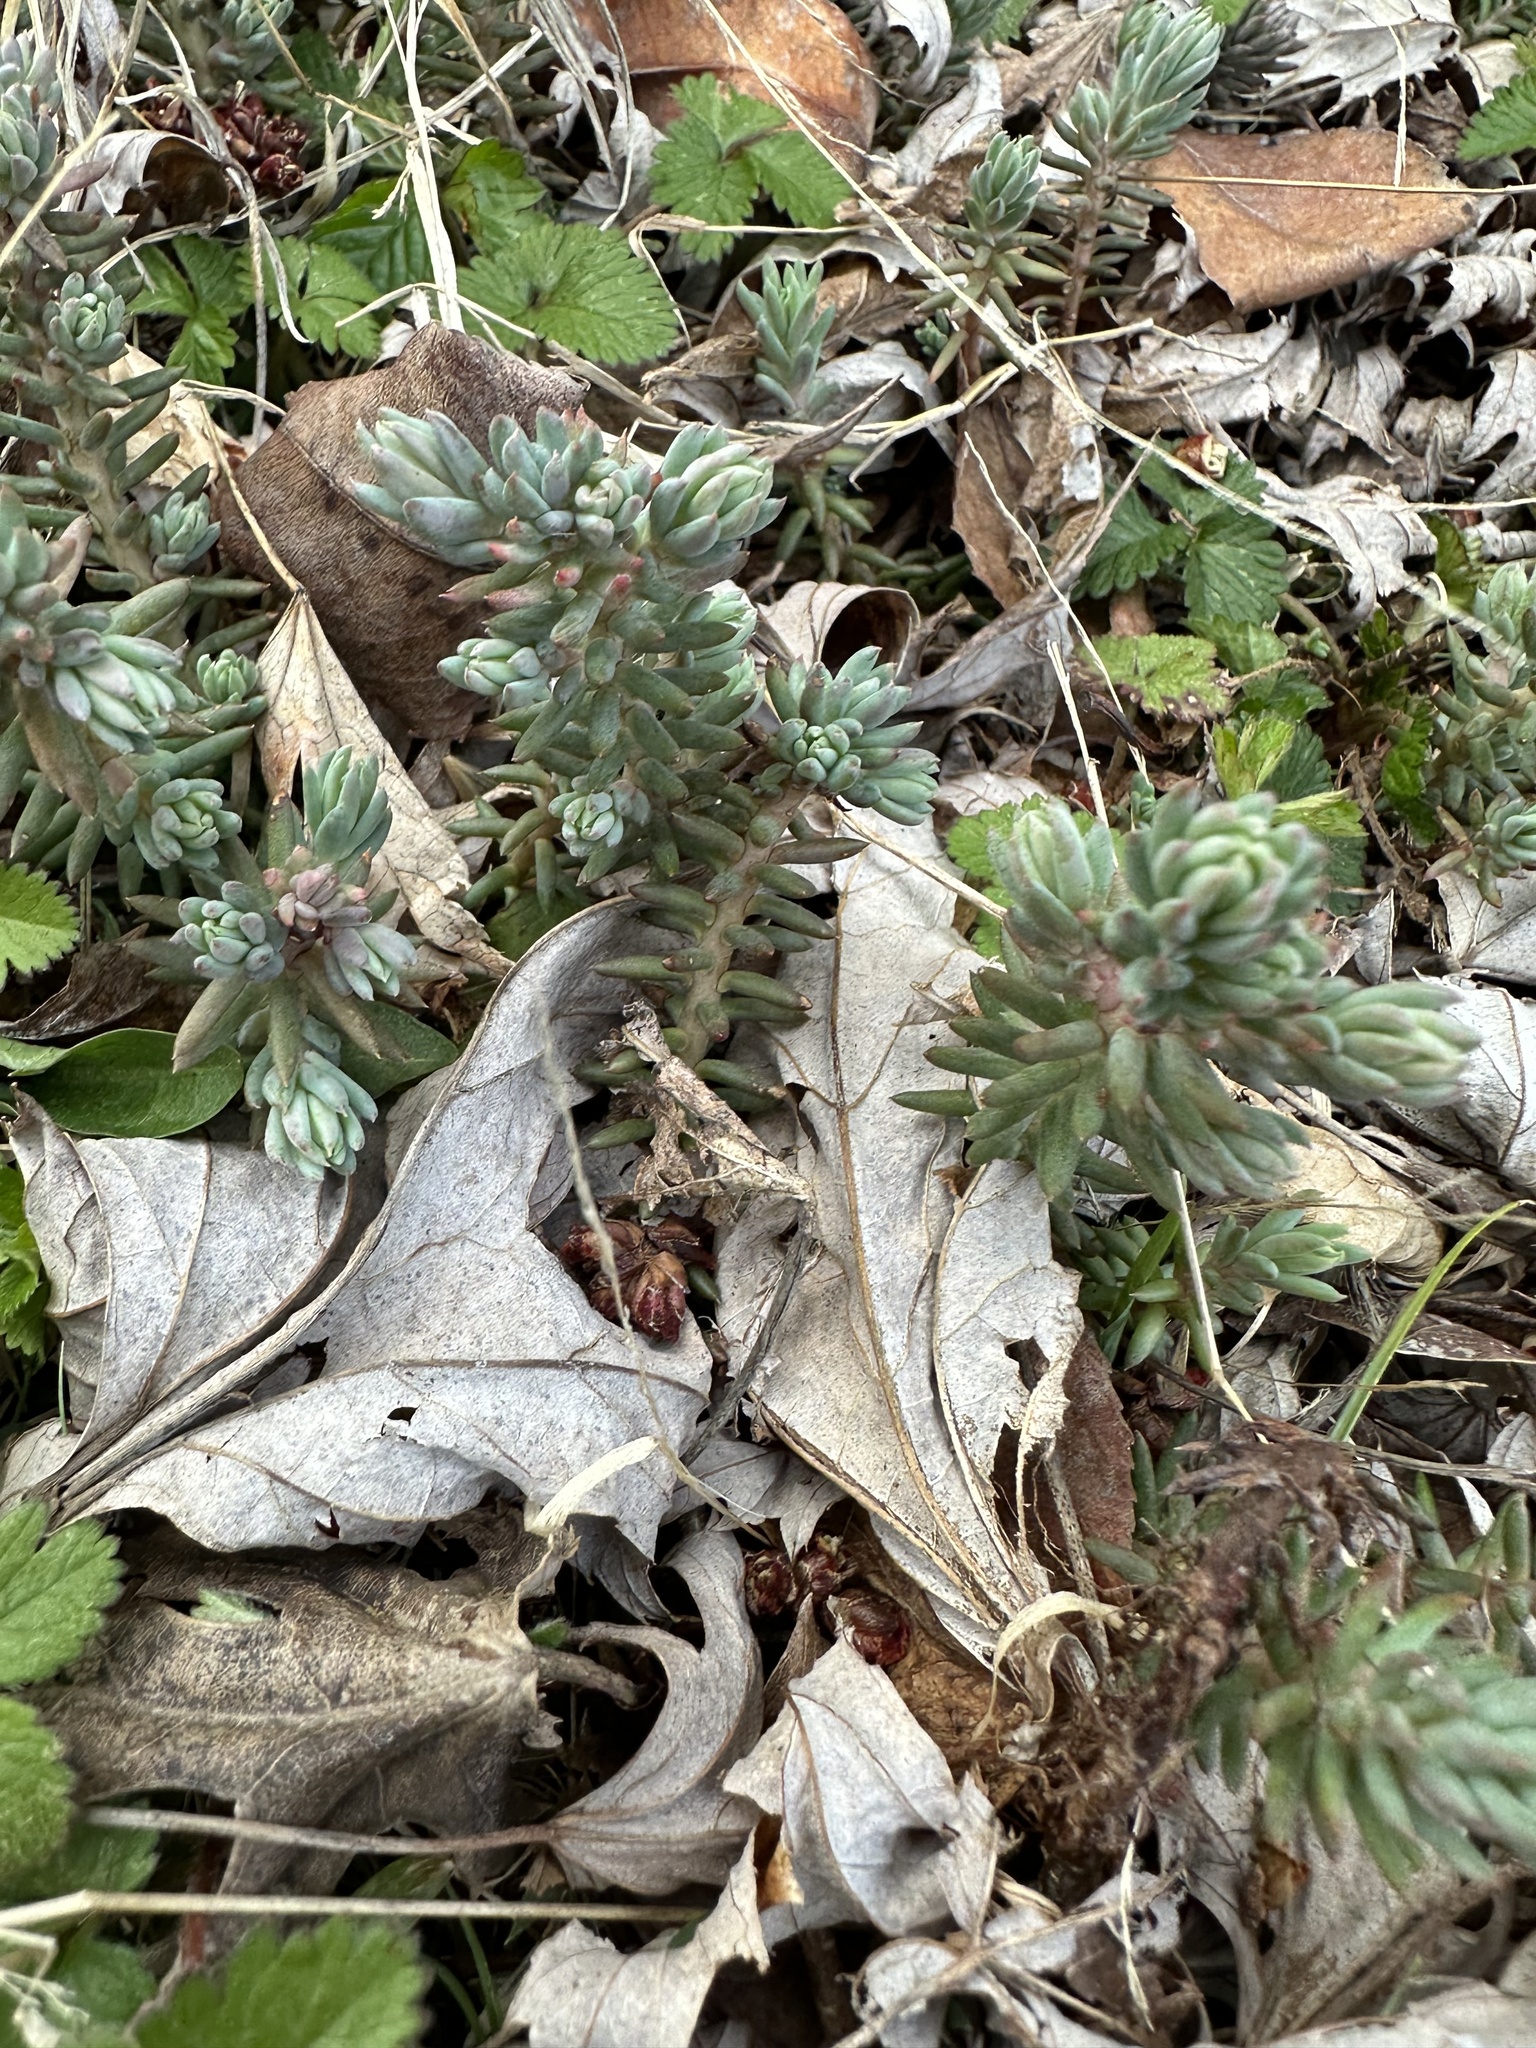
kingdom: Plantae
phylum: Tracheophyta
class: Magnoliopsida
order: Saxifragales
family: Crassulaceae
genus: Petrosedum
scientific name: Petrosedum rupestre
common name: Jenny's stonecrop
